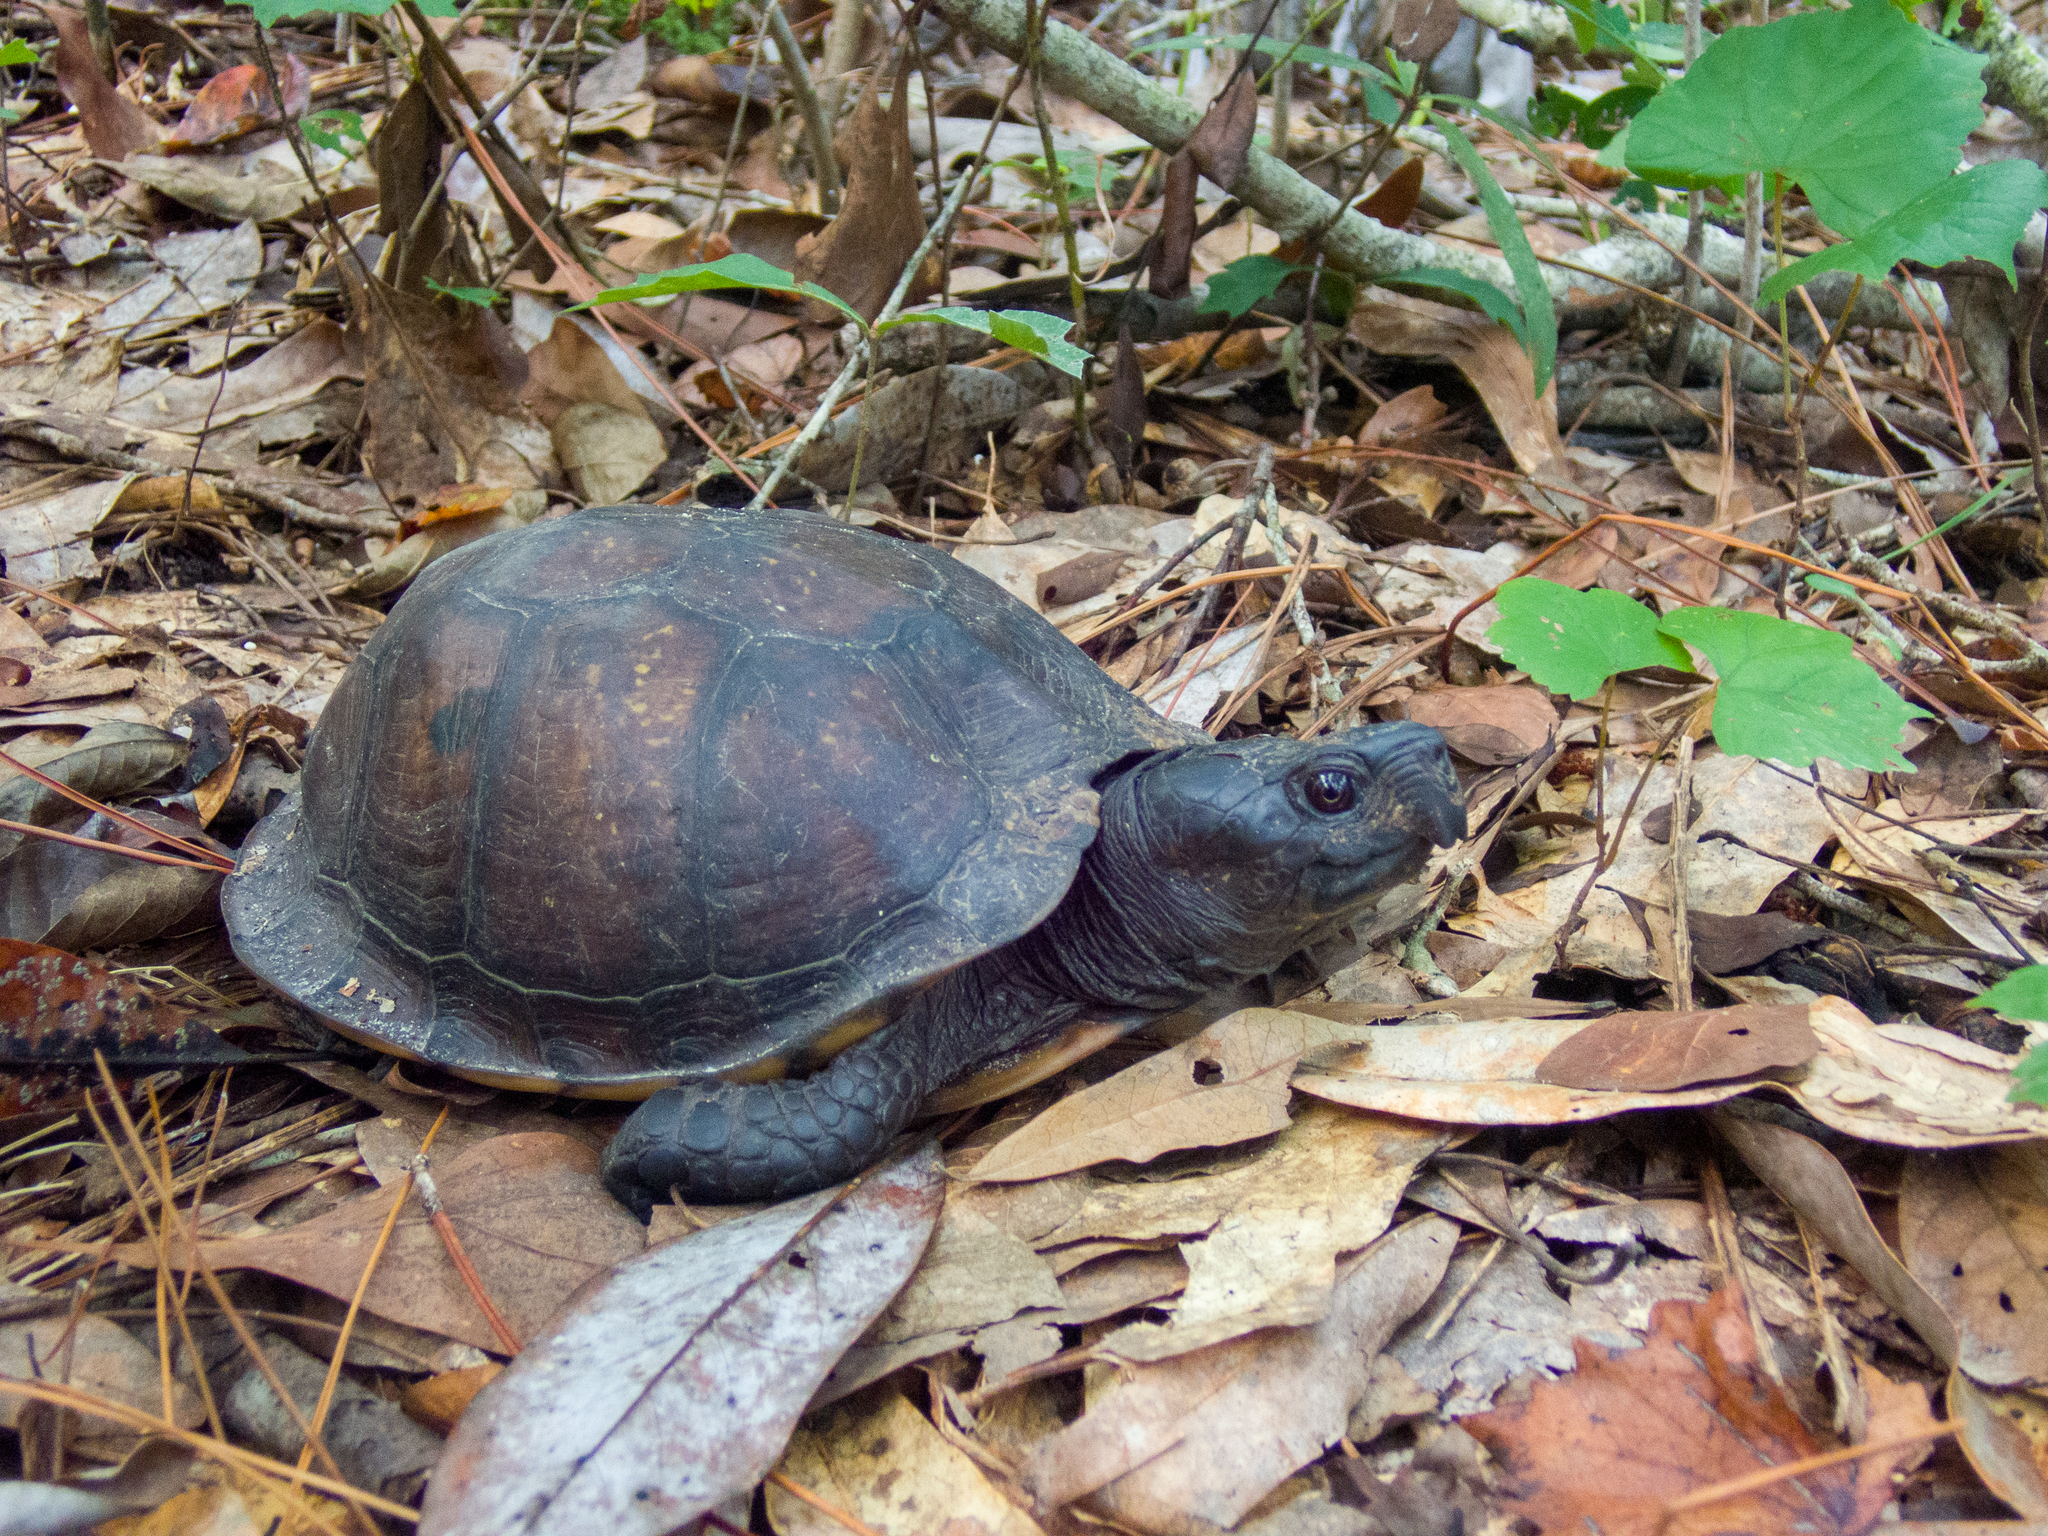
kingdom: Animalia
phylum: Chordata
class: Testudines
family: Emydidae
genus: Terrapene
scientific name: Terrapene carolina
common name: Common box turtle
